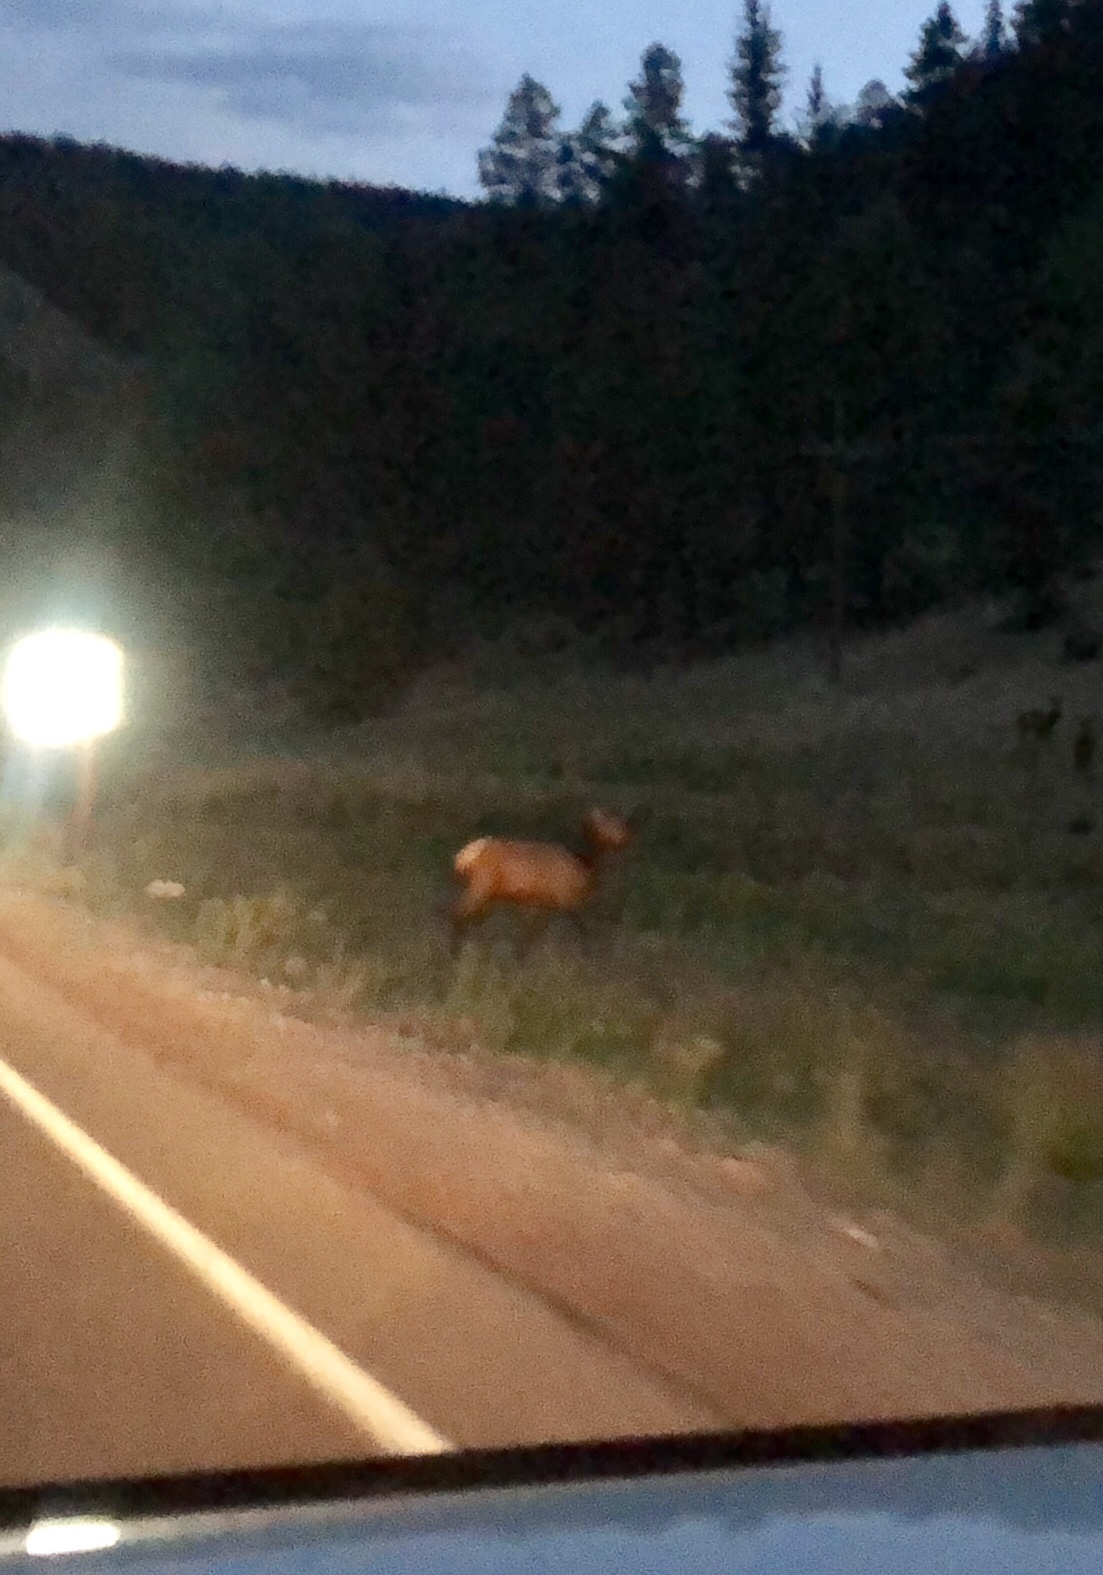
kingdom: Animalia
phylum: Chordata
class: Mammalia
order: Artiodactyla
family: Cervidae
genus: Cervus
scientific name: Cervus elaphus
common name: Red deer
